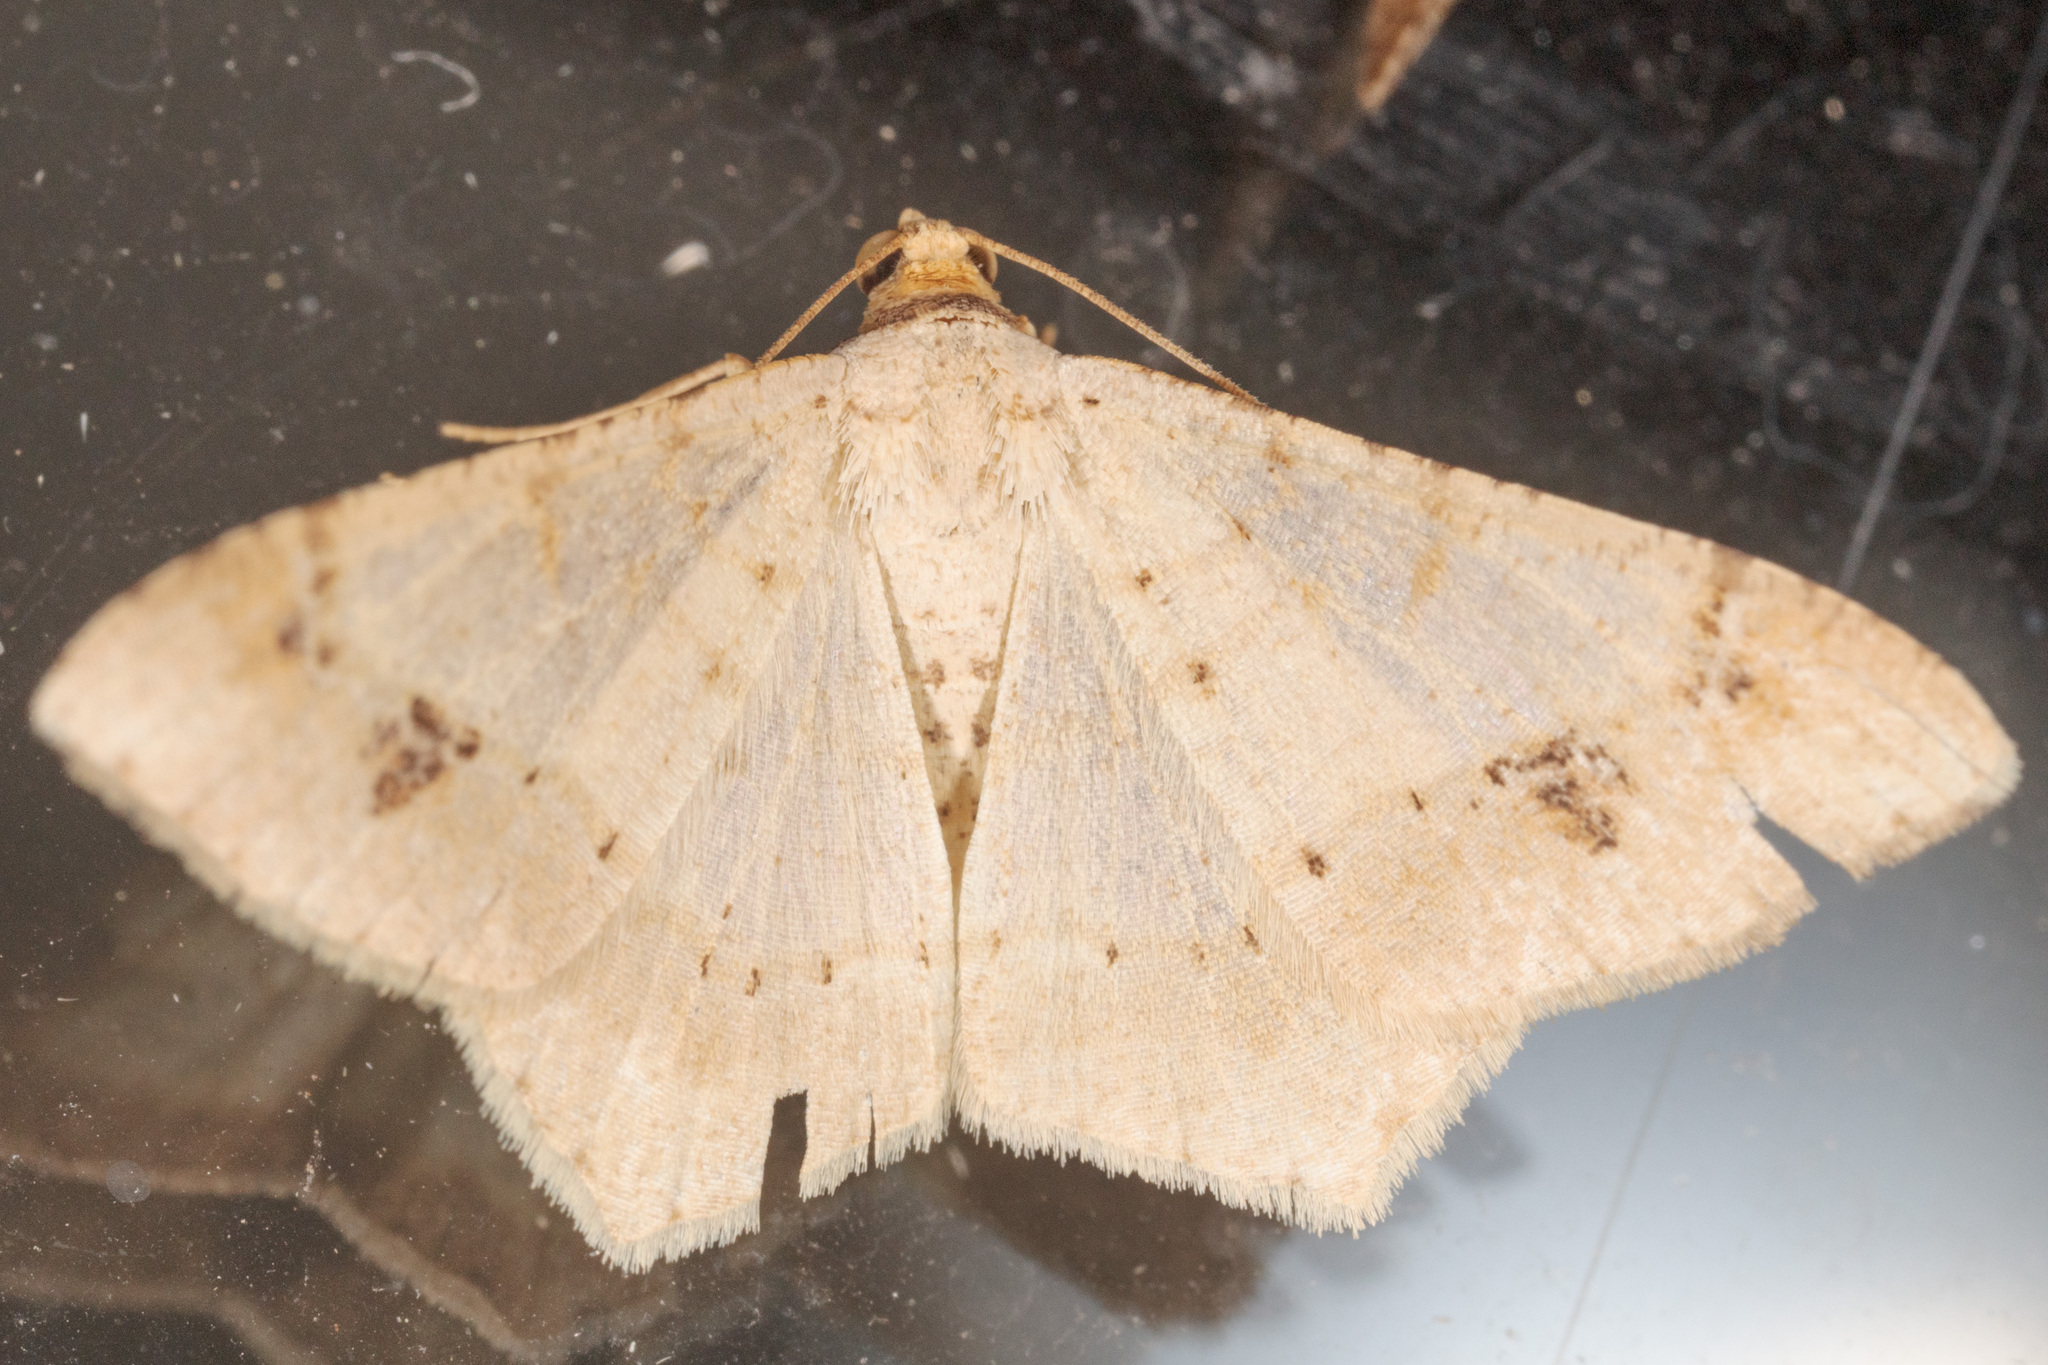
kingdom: Animalia
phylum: Arthropoda
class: Insecta
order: Lepidoptera
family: Geometridae
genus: Macaria
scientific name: Macaria abydata
